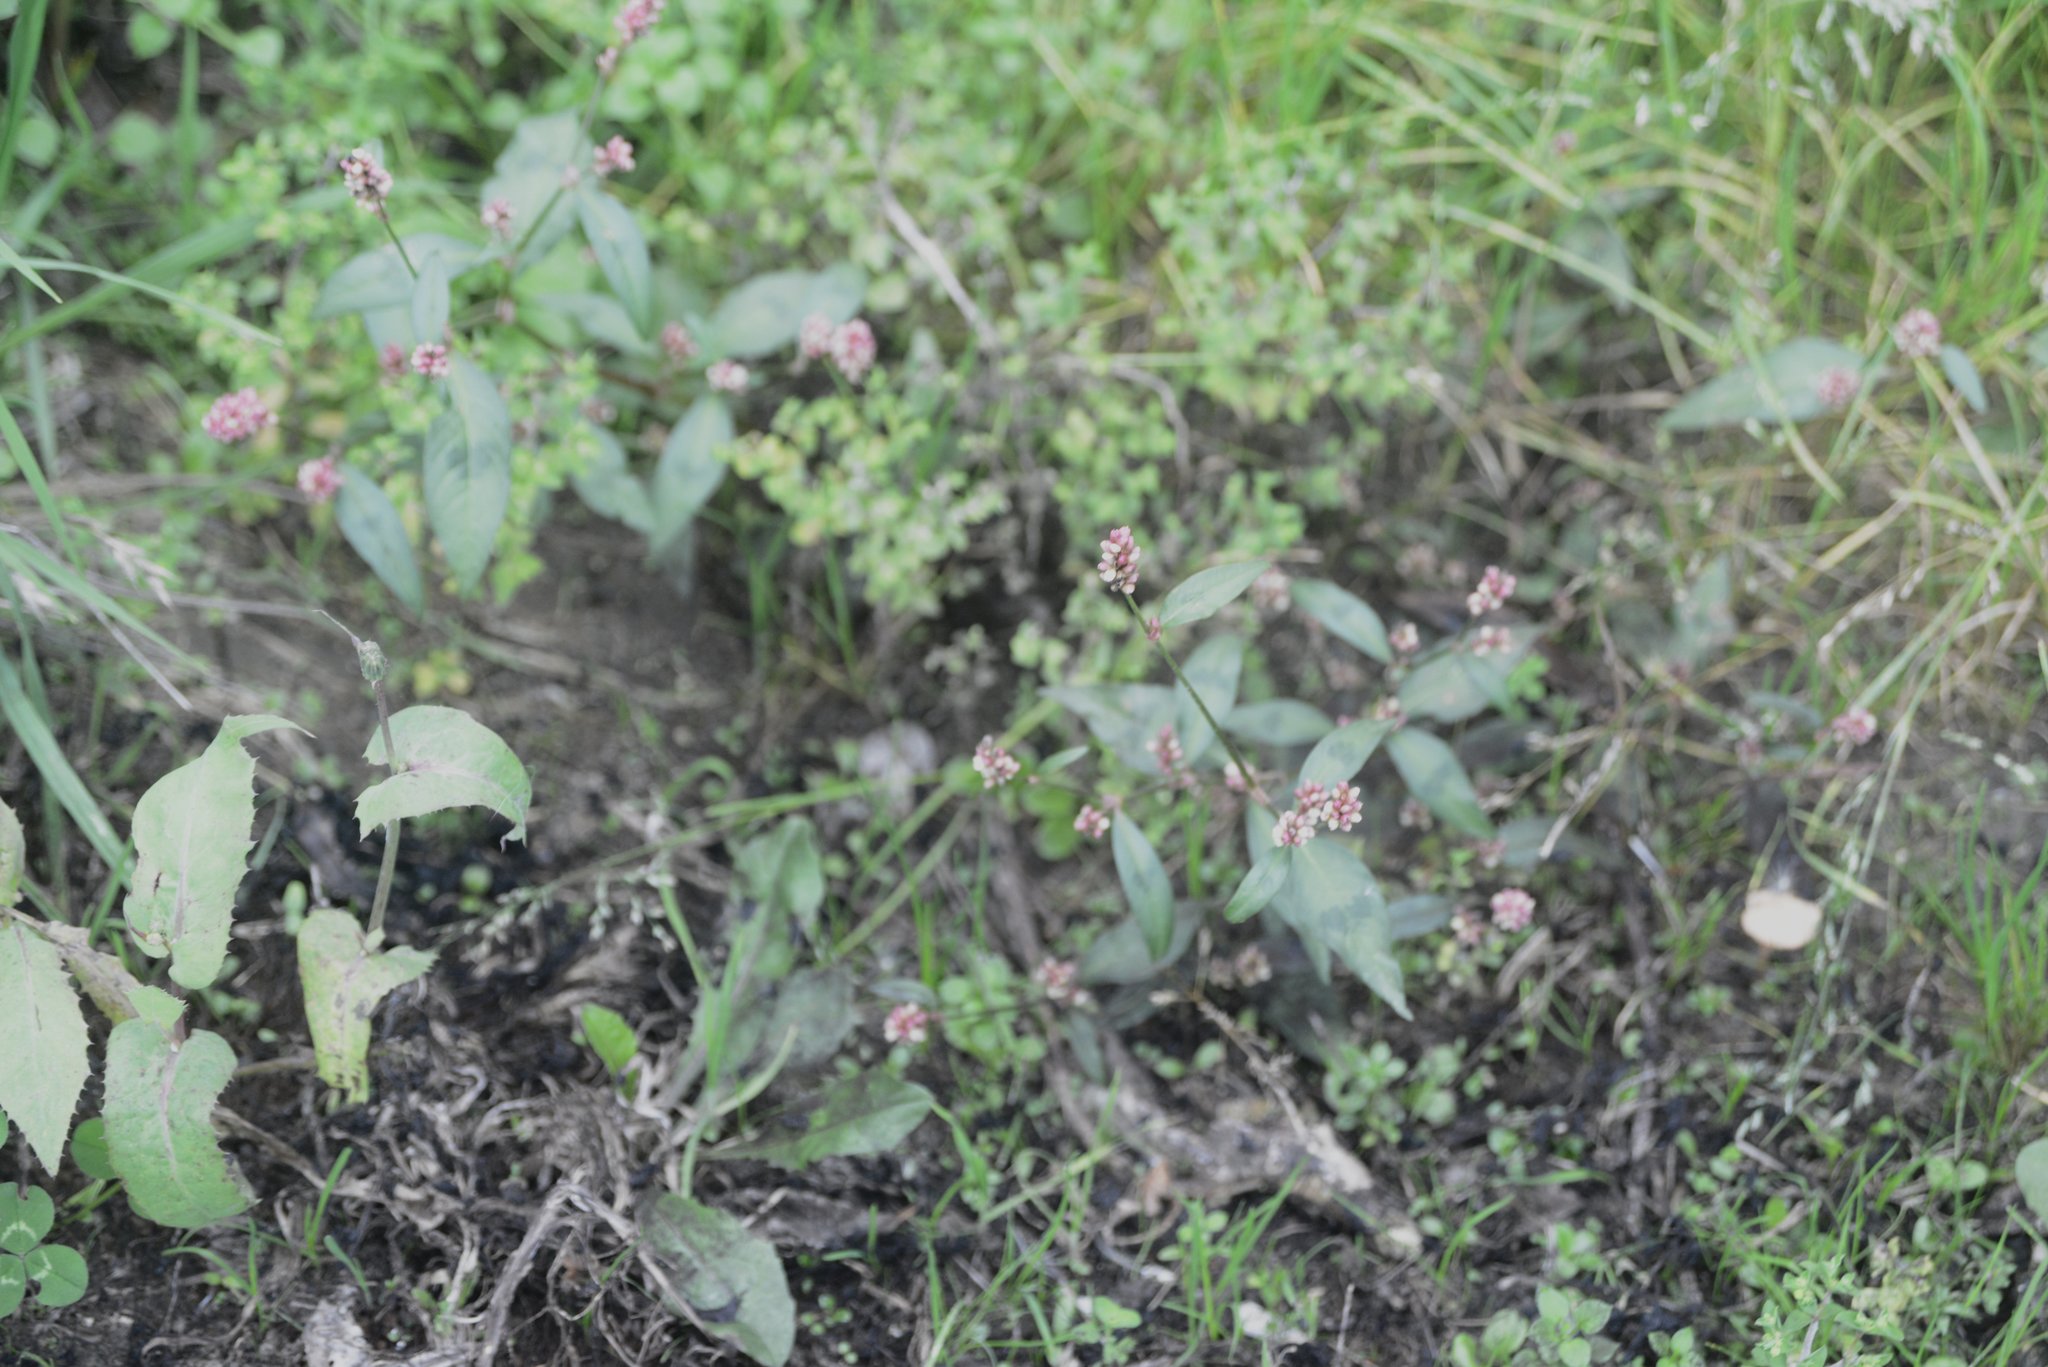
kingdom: Plantae
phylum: Tracheophyta
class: Magnoliopsida
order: Caryophyllales
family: Polygonaceae
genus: Persicaria
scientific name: Persicaria maculosa
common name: Redshank
